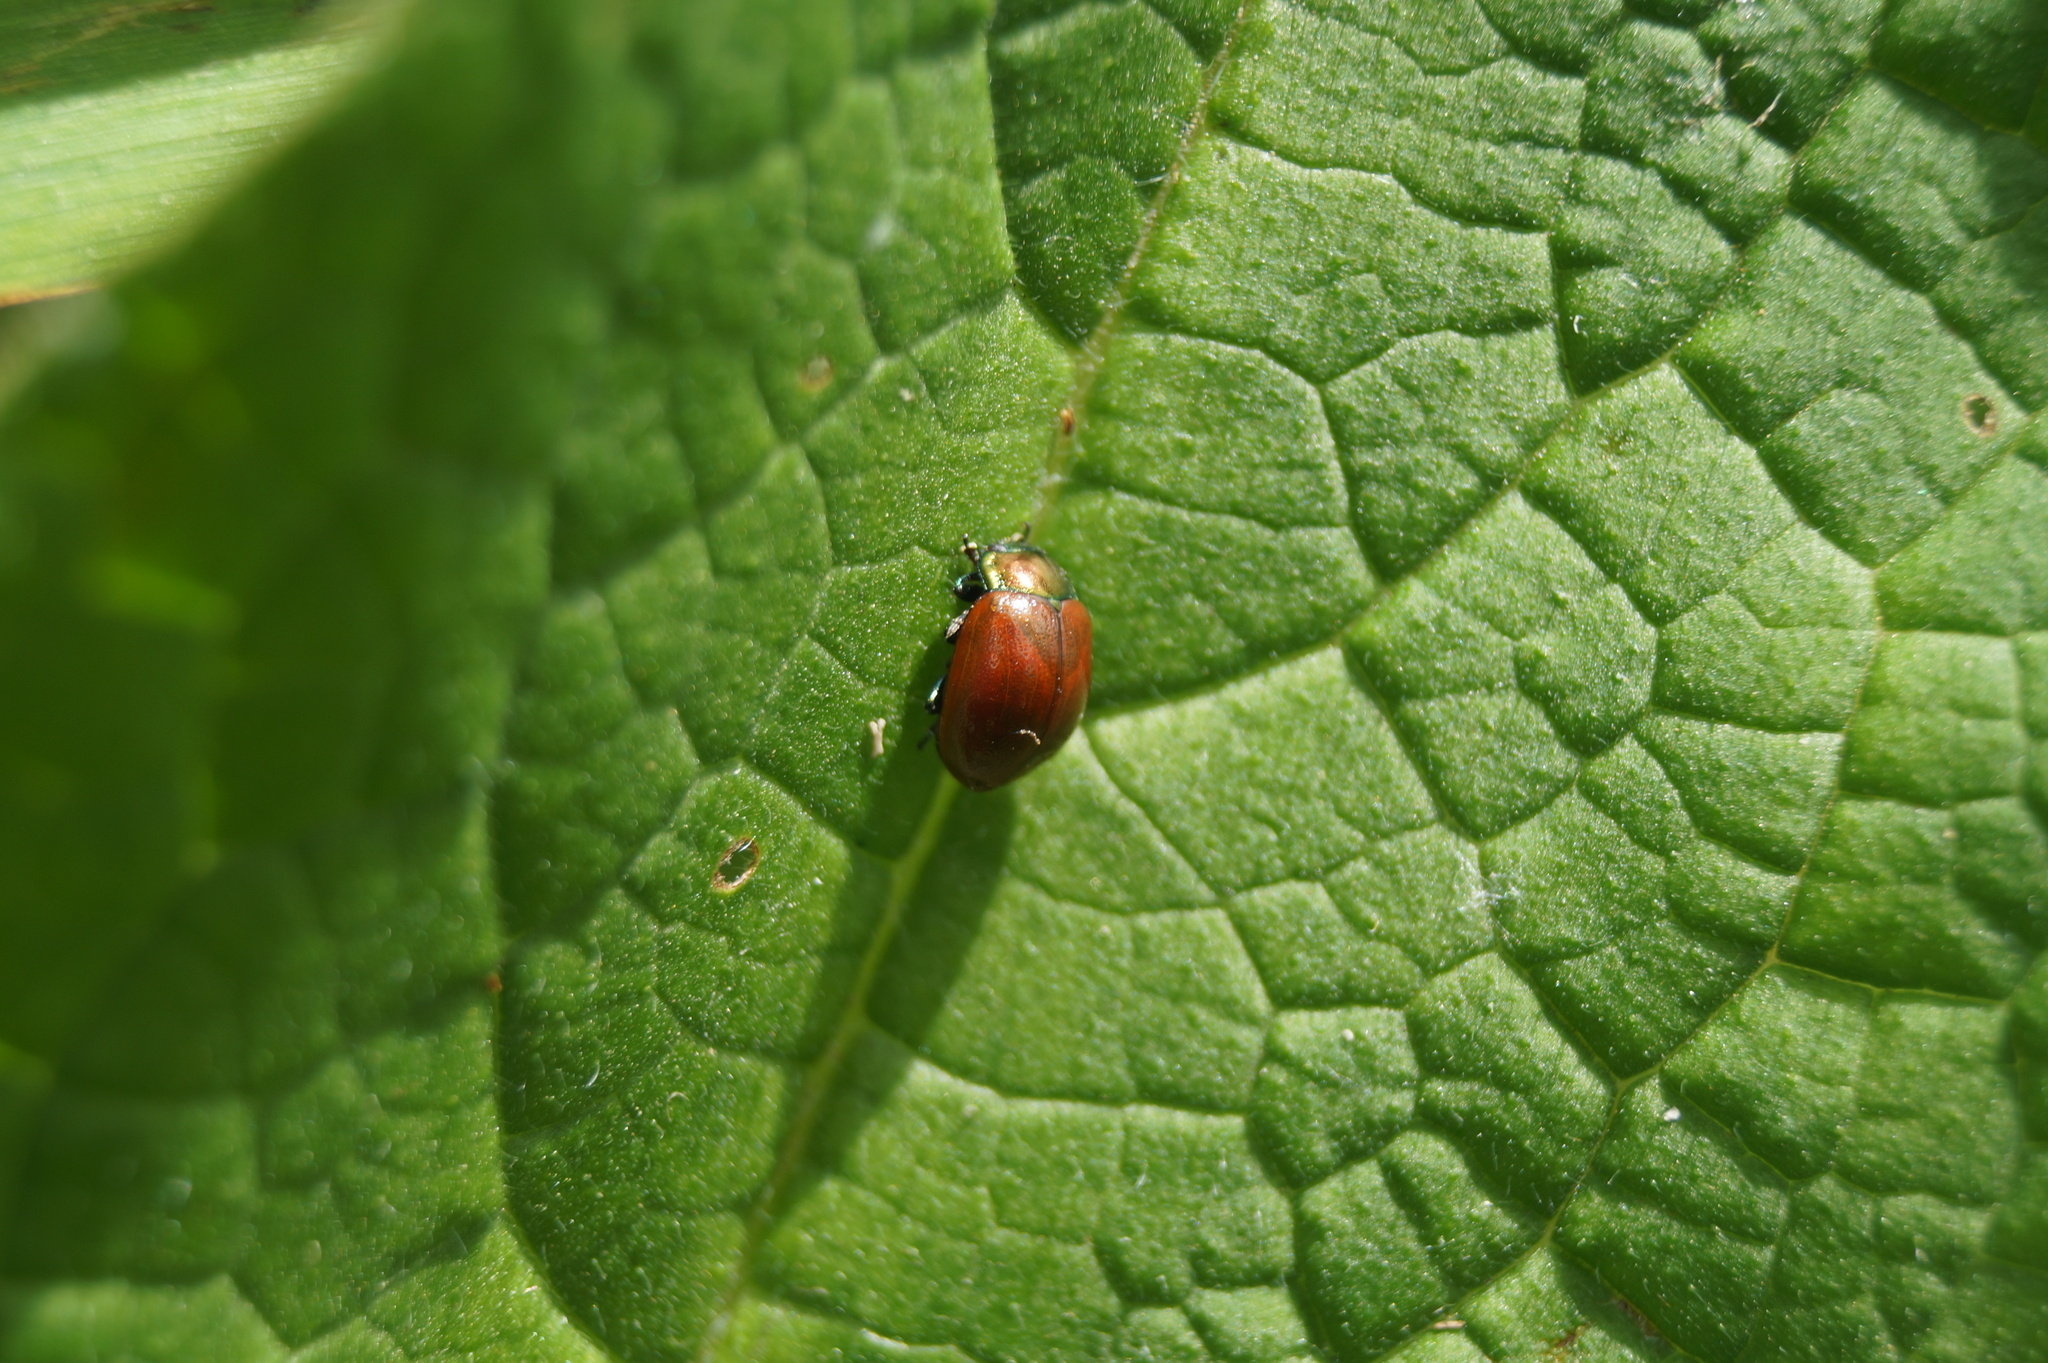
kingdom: Animalia
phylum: Arthropoda
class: Insecta
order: Coleoptera
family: Chrysomelidae
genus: Chrysomela
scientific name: Chrysomela polita
